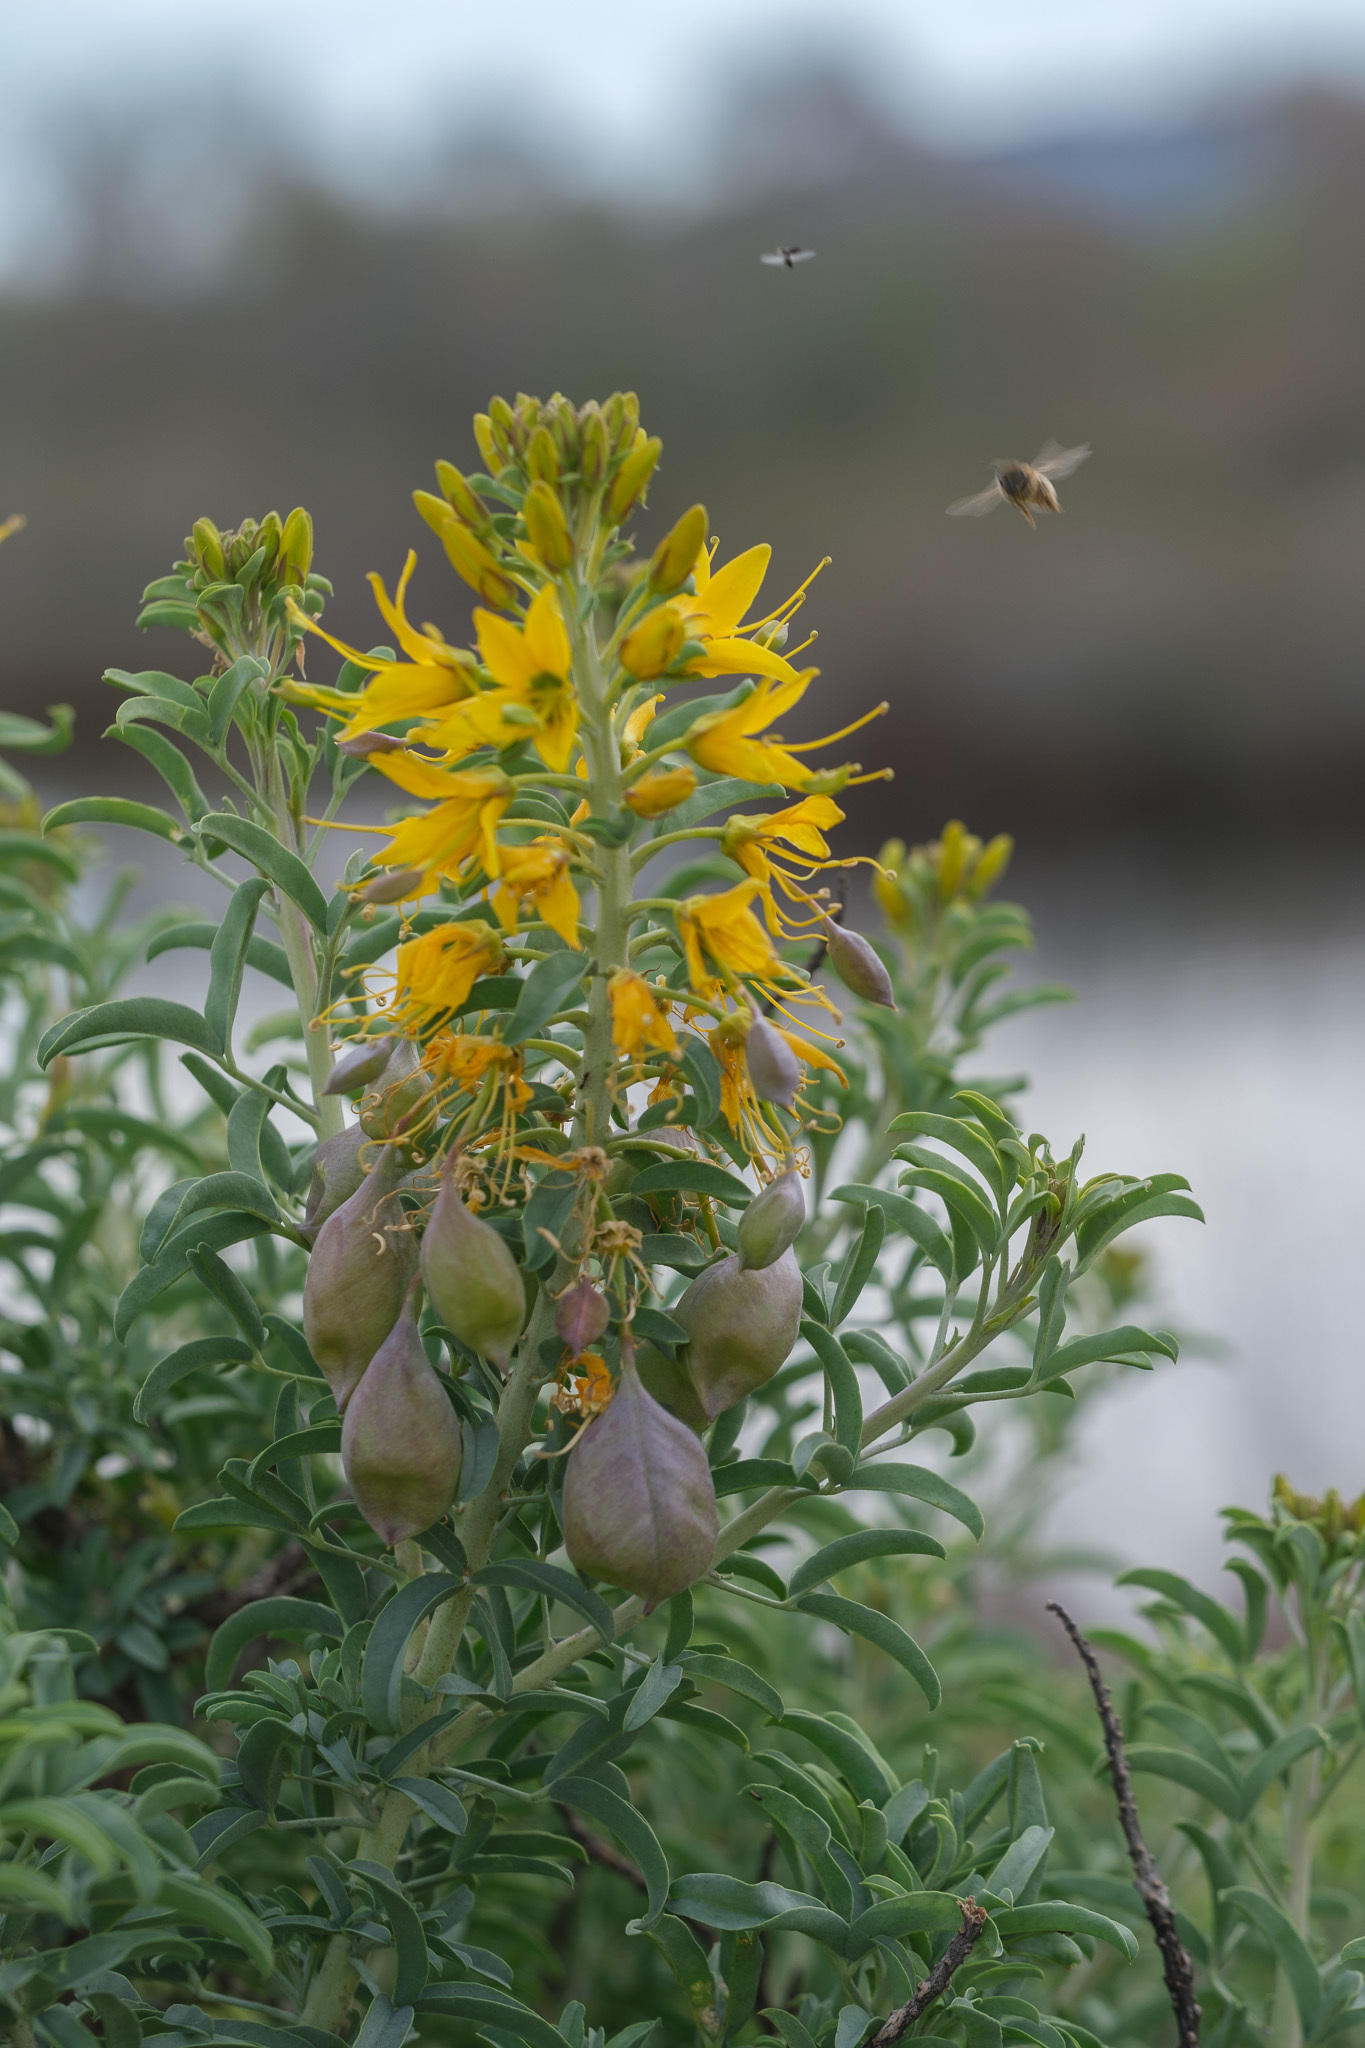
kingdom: Plantae
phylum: Tracheophyta
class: Magnoliopsida
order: Brassicales
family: Cleomaceae
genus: Cleomella
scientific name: Cleomella arborea
